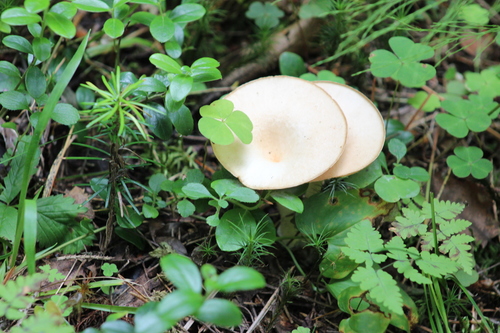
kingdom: Fungi
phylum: Basidiomycota
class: Agaricomycetes
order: Agaricales
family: Tricholomataceae
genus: Infundibulicybe
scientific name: Infundibulicybe gibba
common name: Common funnel
